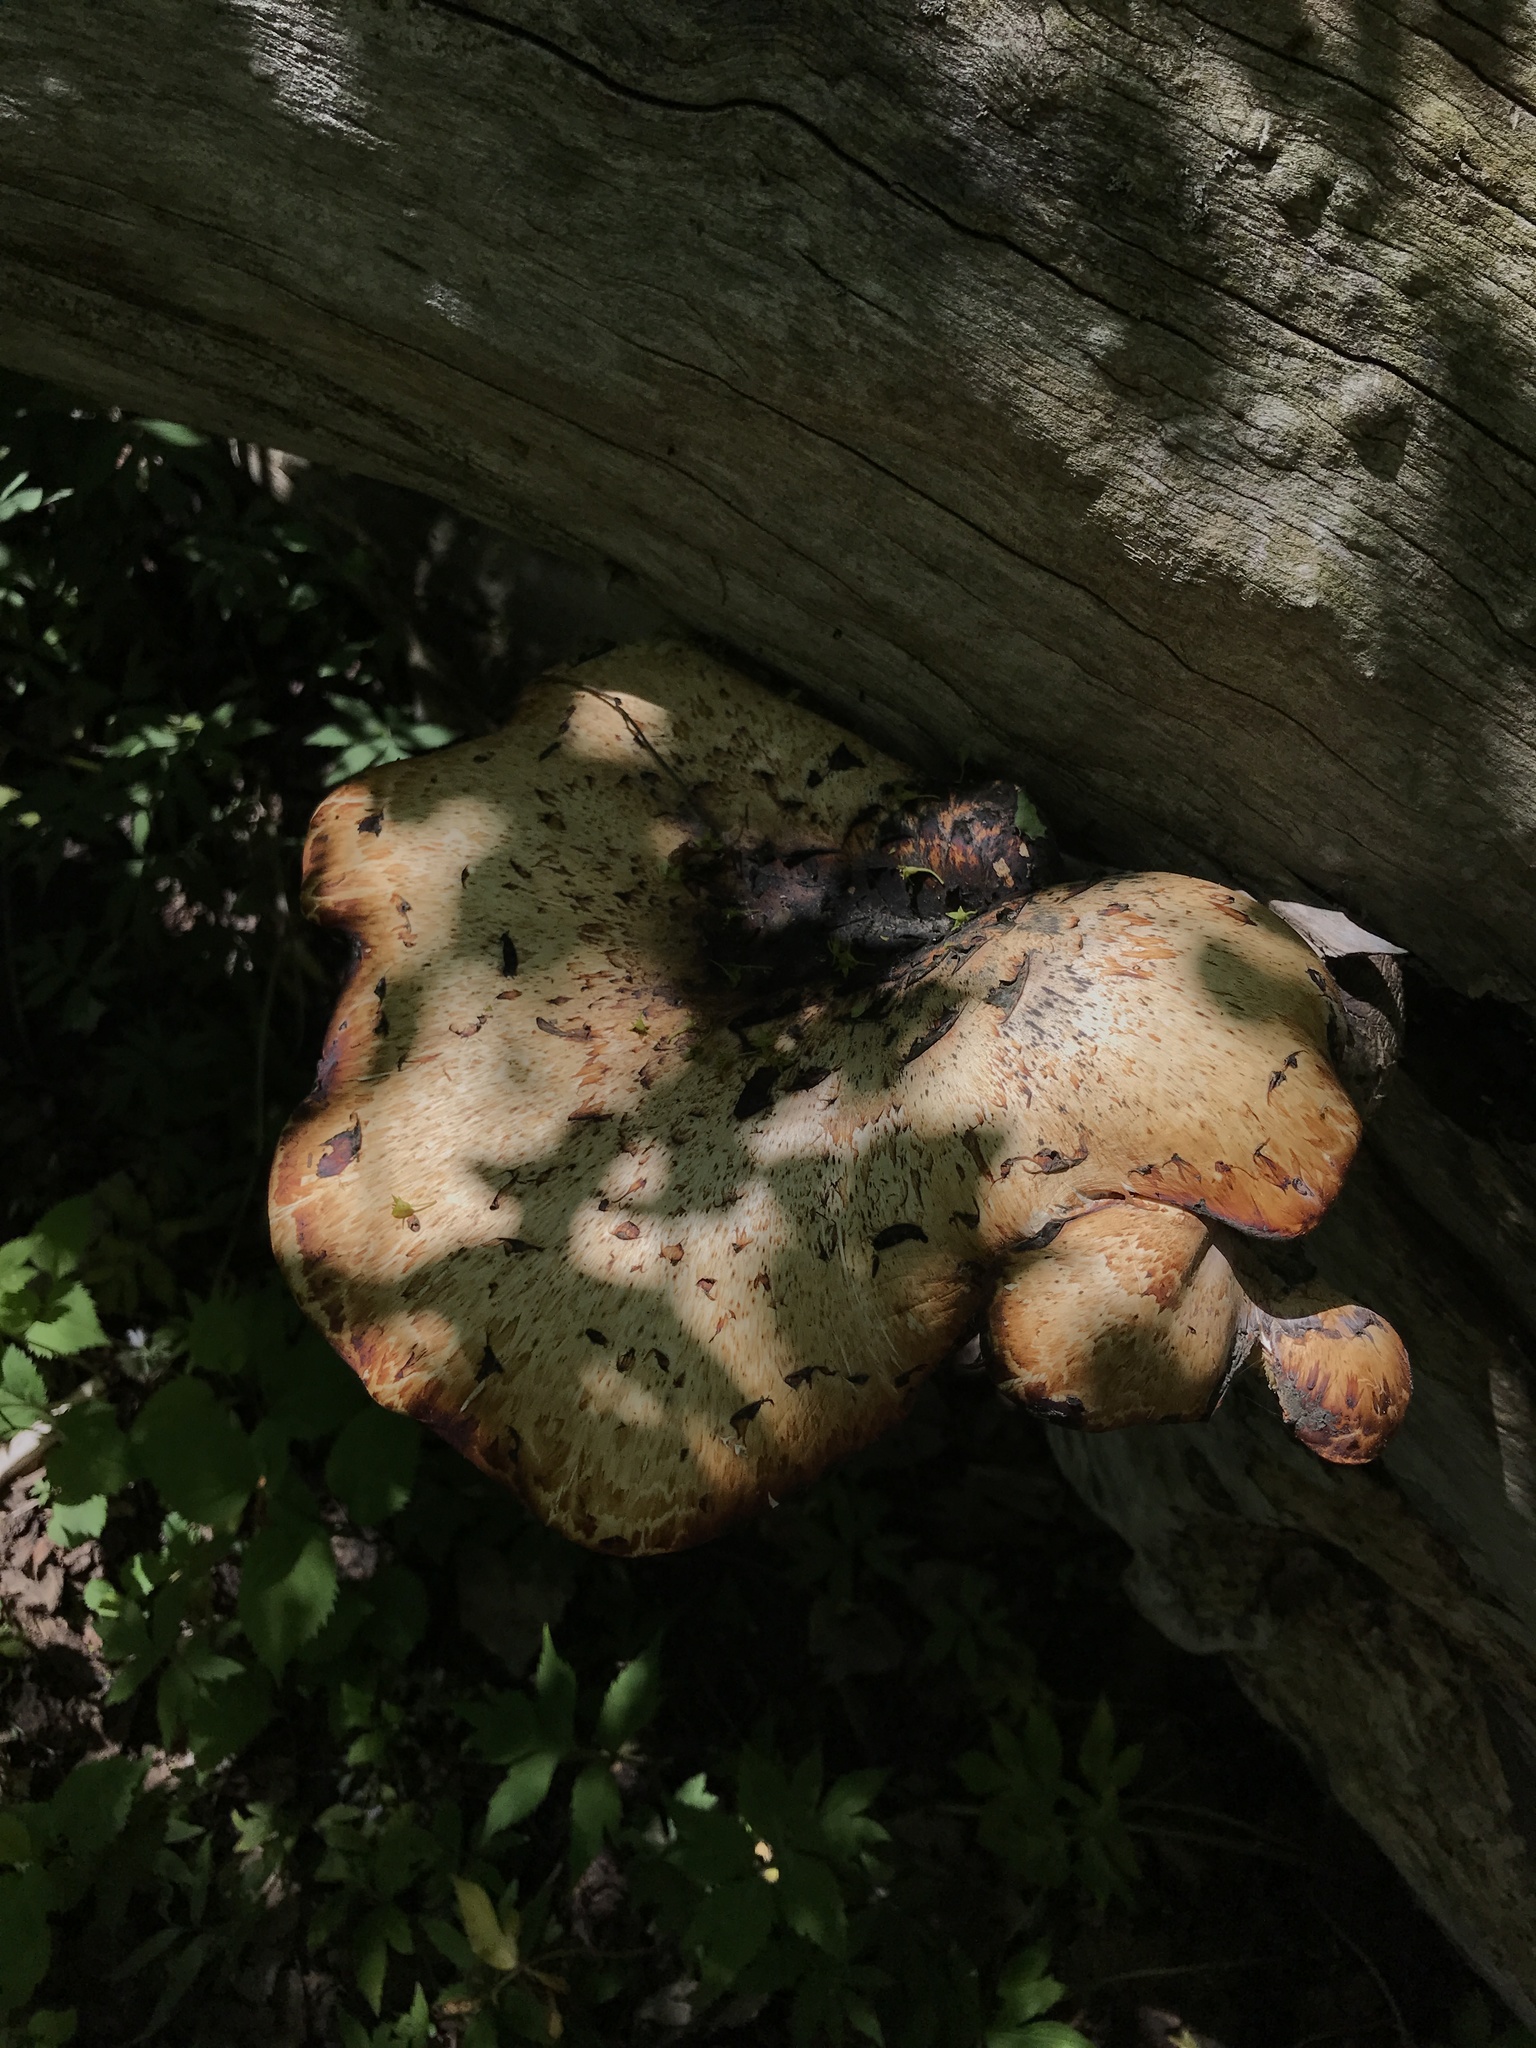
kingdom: Fungi
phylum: Basidiomycota
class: Agaricomycetes
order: Polyporales
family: Polyporaceae
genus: Cerioporus
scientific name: Cerioporus squamosus
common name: Dryad's saddle
